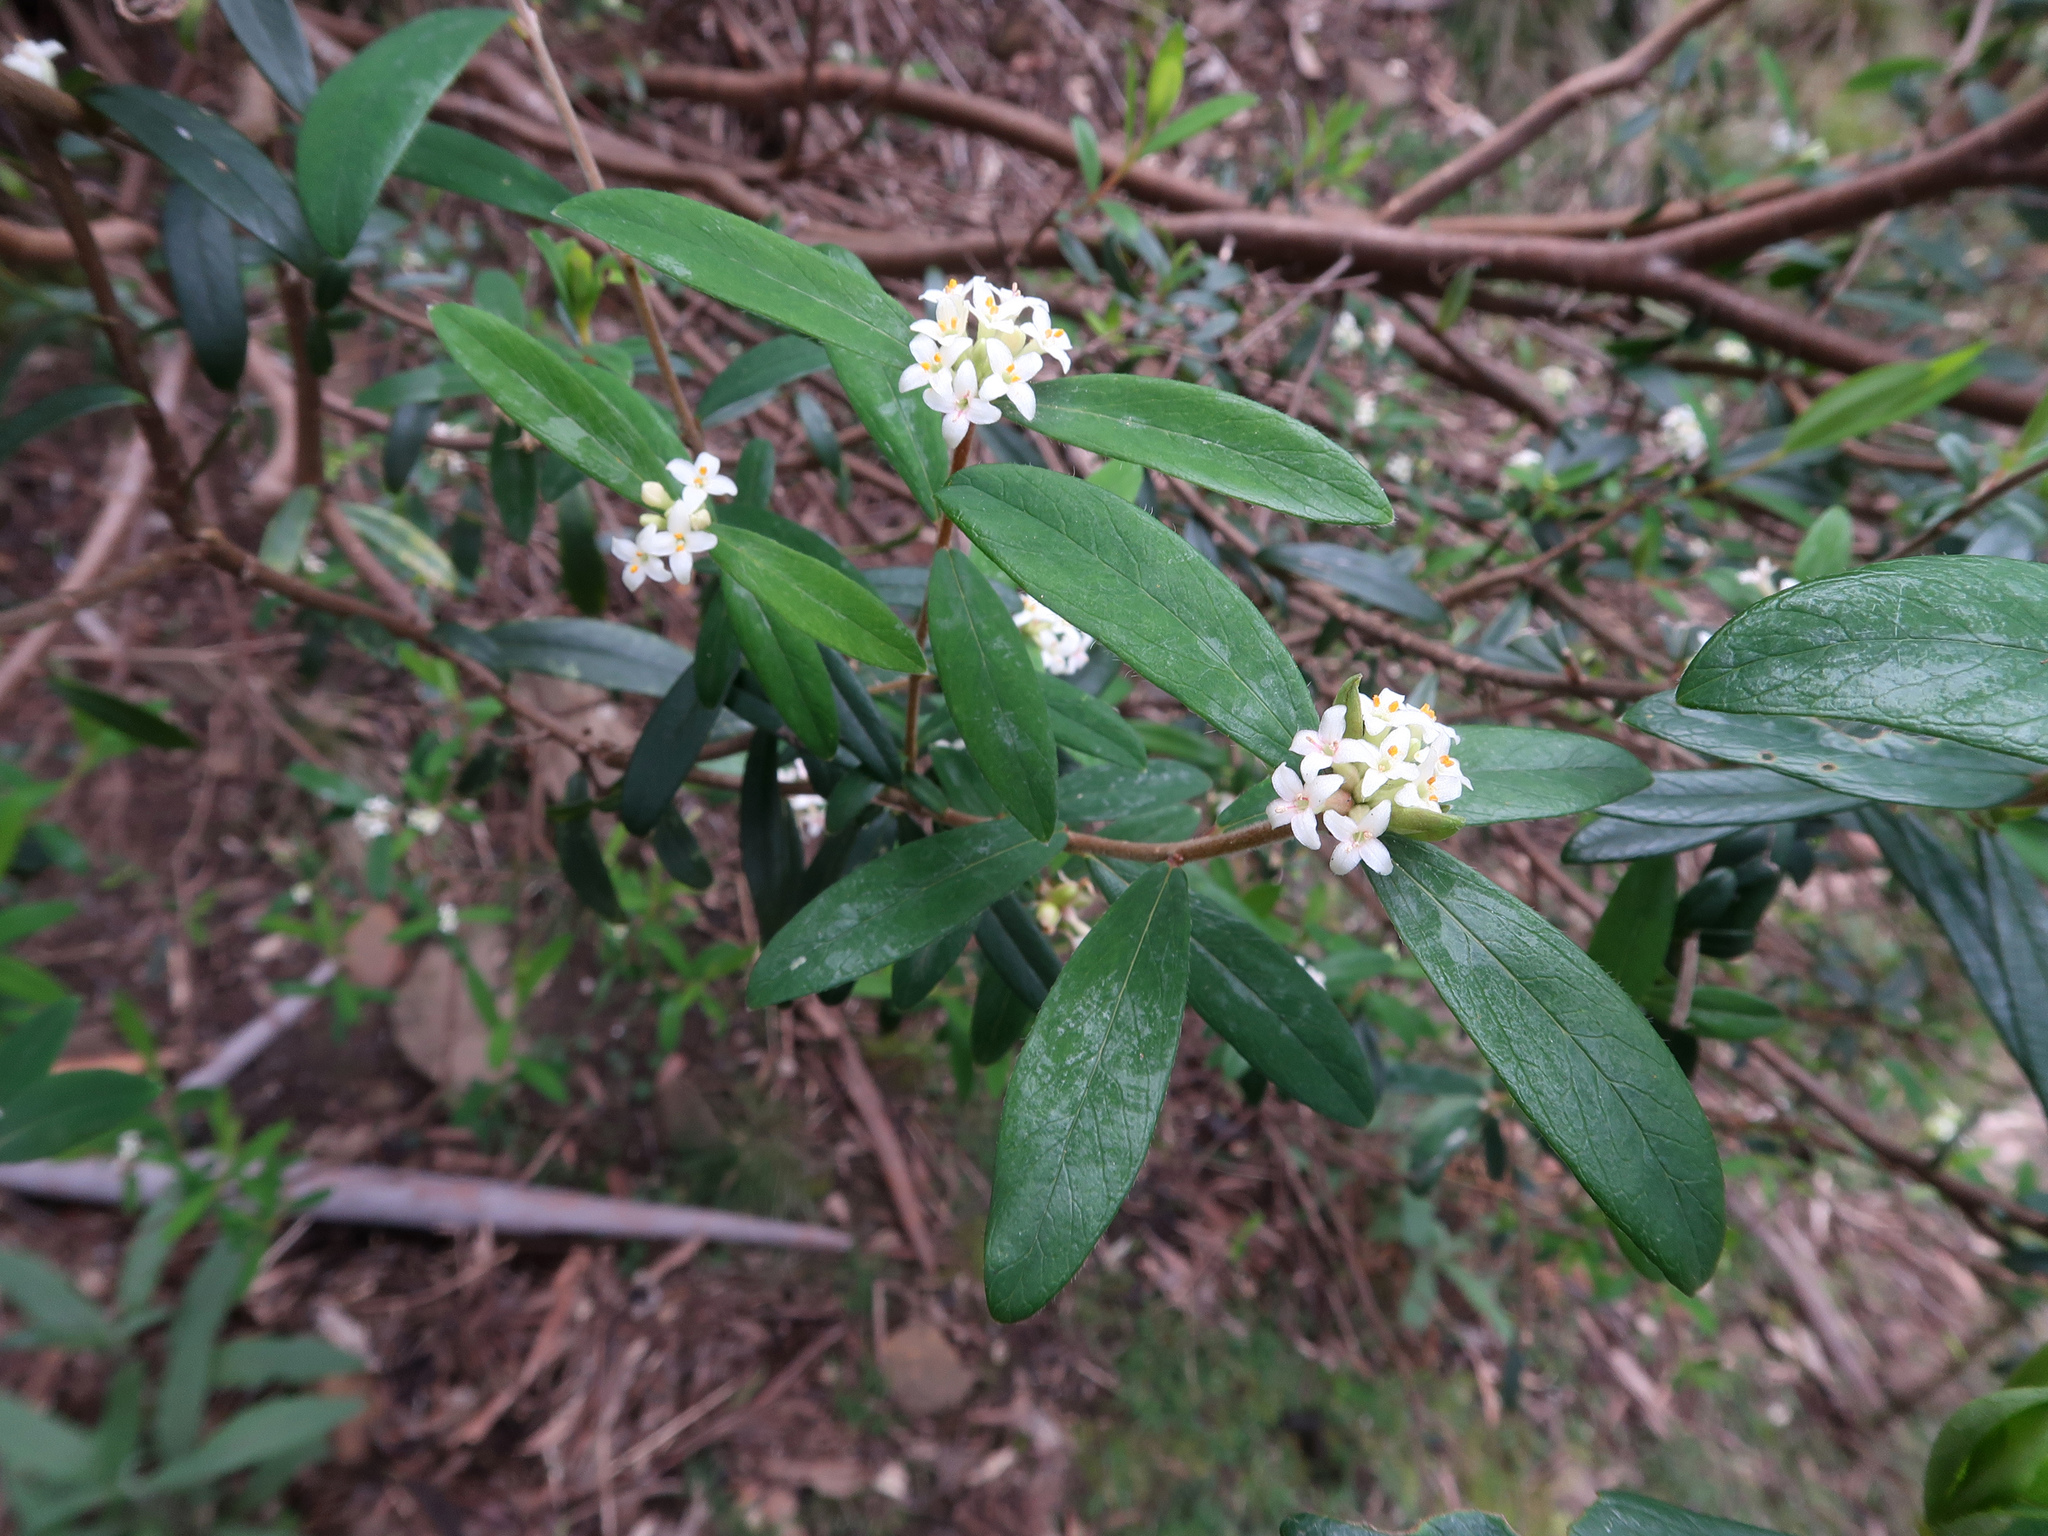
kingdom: Plantae
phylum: Tracheophyta
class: Magnoliopsida
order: Malvales
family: Thymelaeaceae
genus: Pimelea
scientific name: Pimelea drupacea
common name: Cherry riceflower
